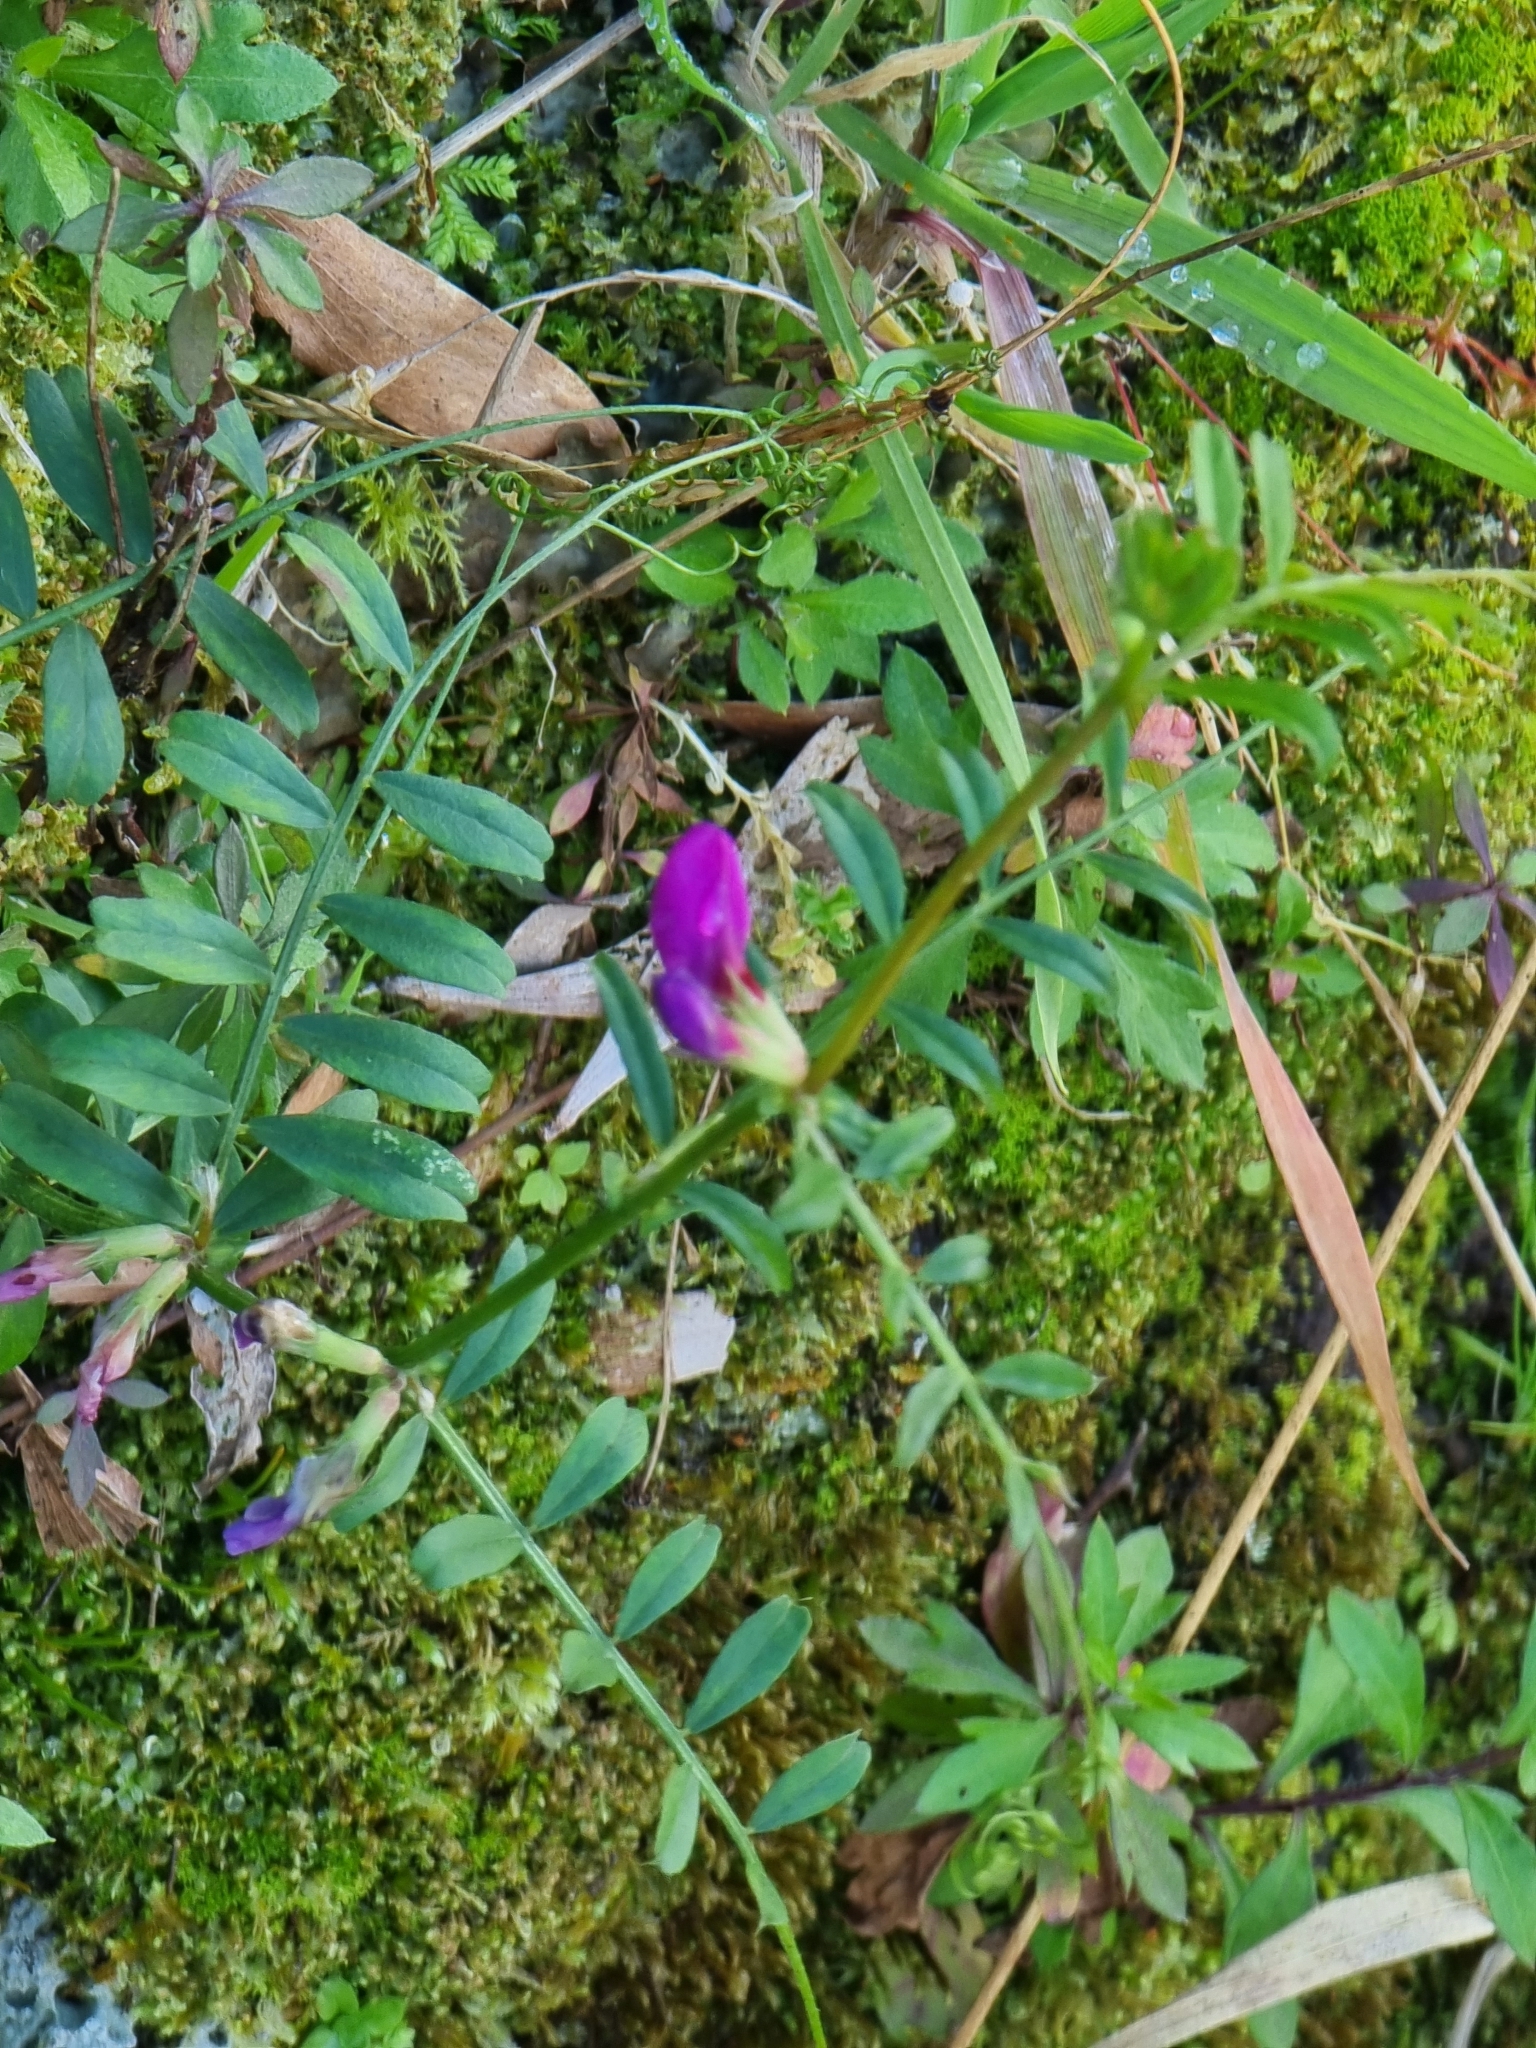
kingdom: Plantae
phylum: Tracheophyta
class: Magnoliopsida
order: Fabales
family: Fabaceae
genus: Vicia
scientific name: Vicia sativa
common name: Garden vetch
